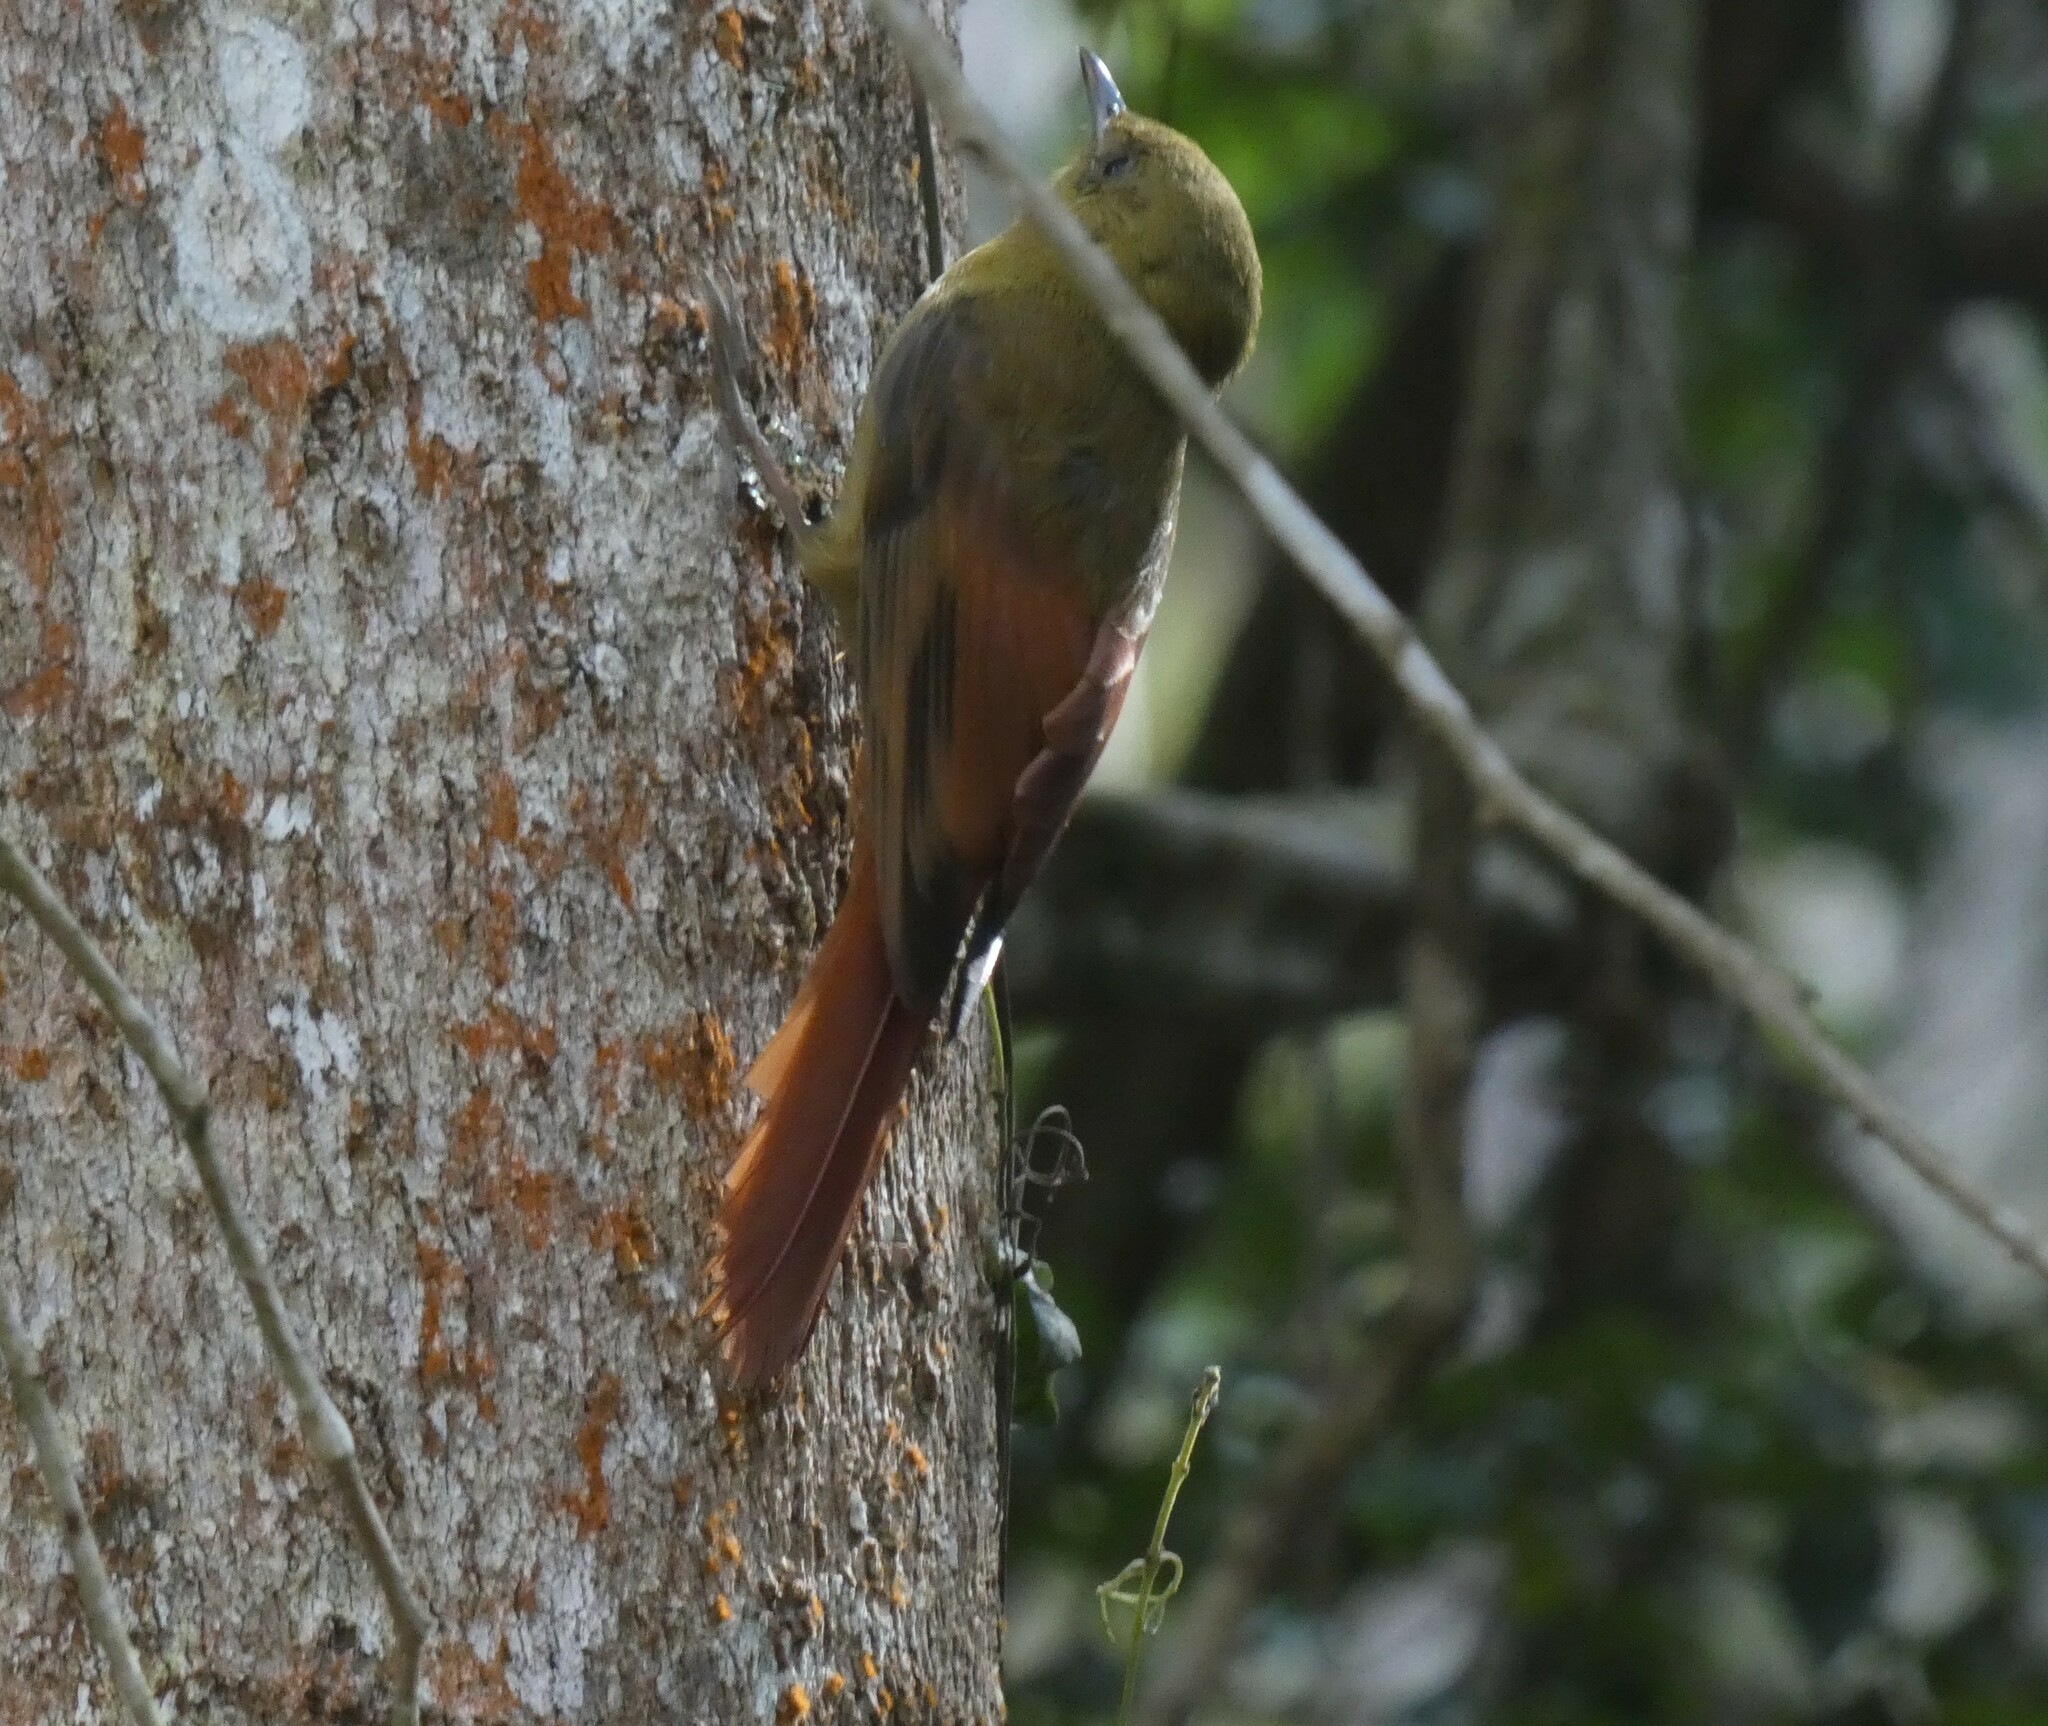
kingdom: Animalia
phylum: Chordata
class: Aves
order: Passeriformes
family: Furnariidae
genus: Sittasomus
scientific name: Sittasomus griseicapillus
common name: Olivaceous woodcreeper
